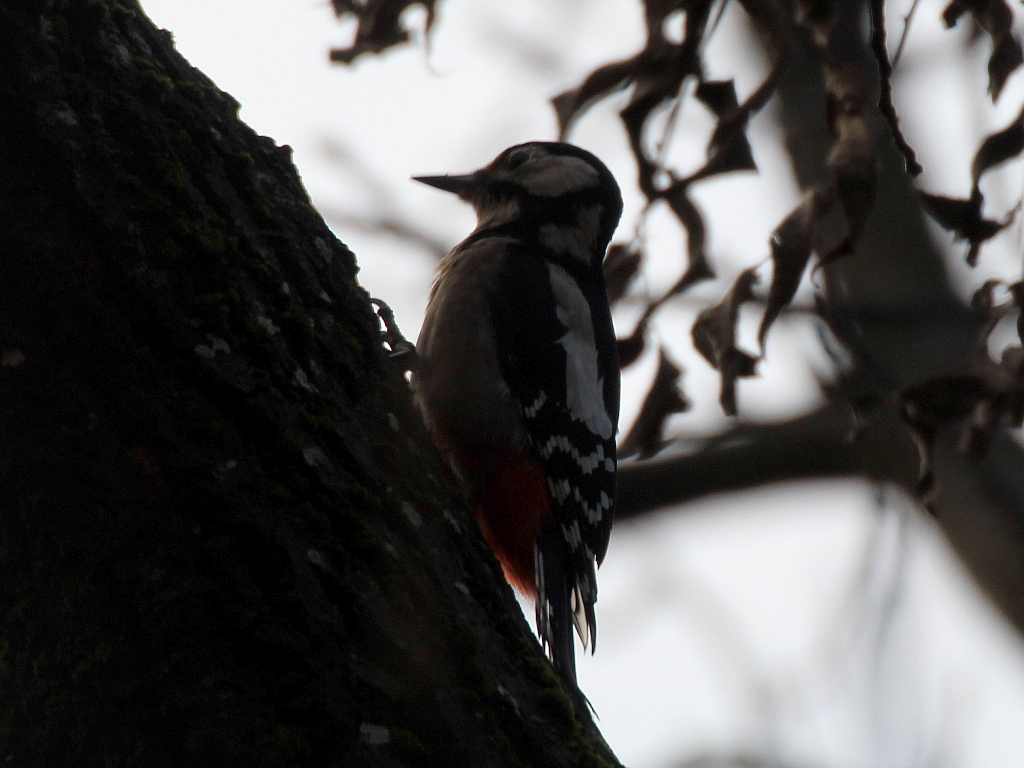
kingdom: Animalia
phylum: Chordata
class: Aves
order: Piciformes
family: Picidae
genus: Dendrocopos
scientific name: Dendrocopos major
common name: Great spotted woodpecker
